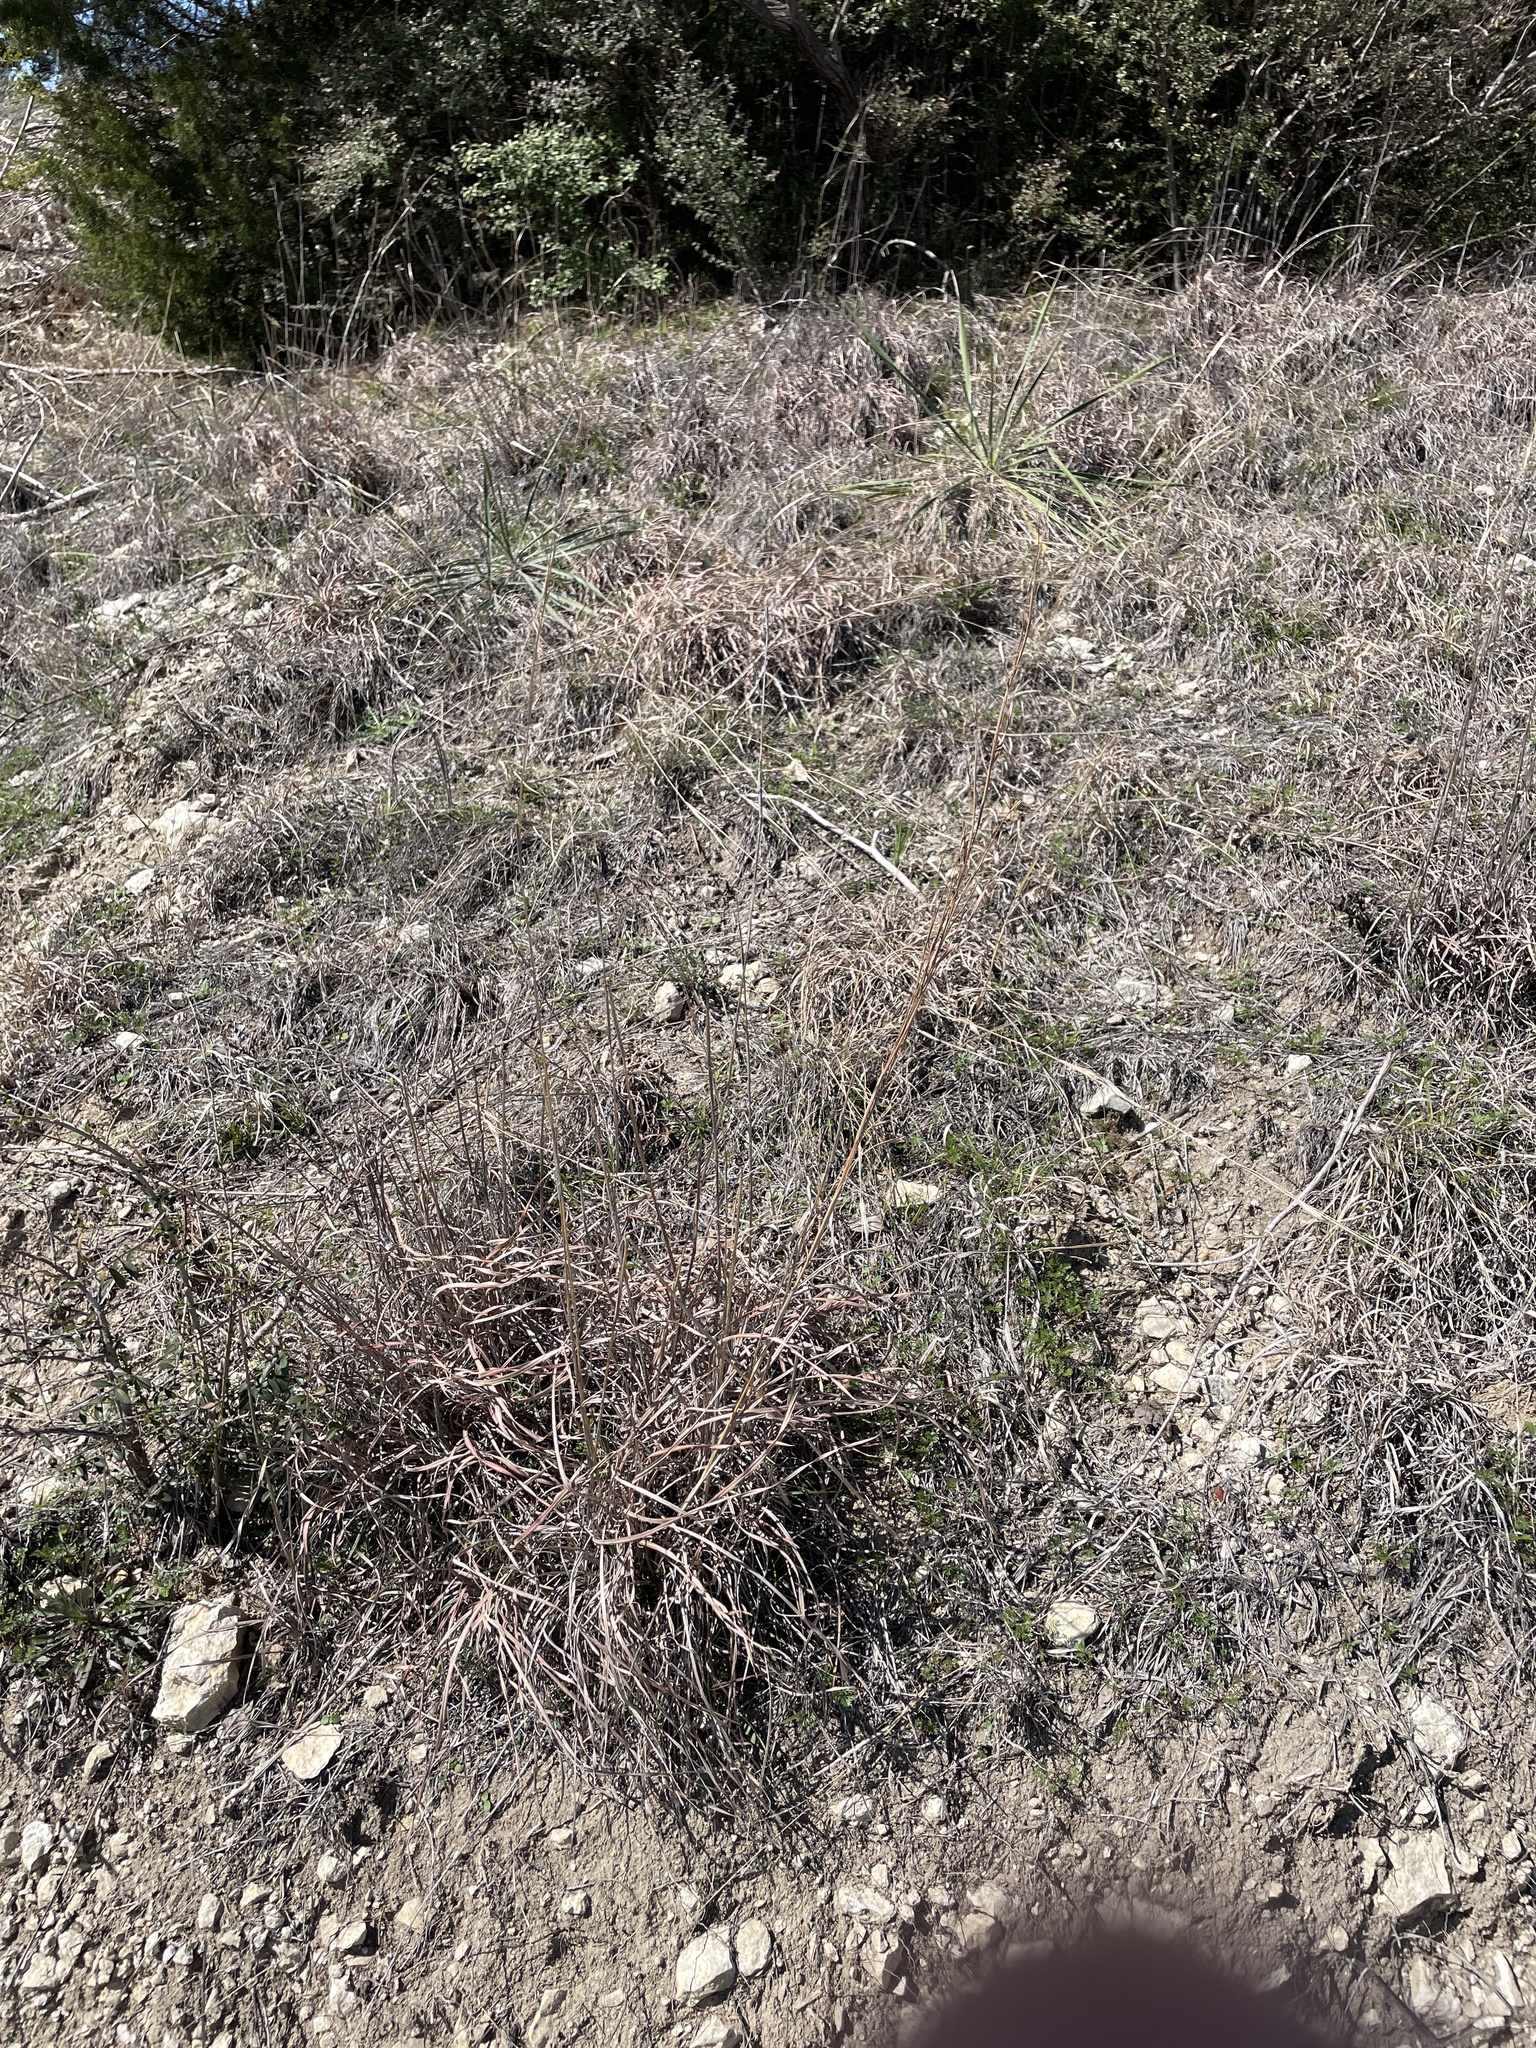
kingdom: Plantae
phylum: Tracheophyta
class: Liliopsida
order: Poales
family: Poaceae
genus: Schizachyrium
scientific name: Schizachyrium scoparium
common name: Little bluestem
